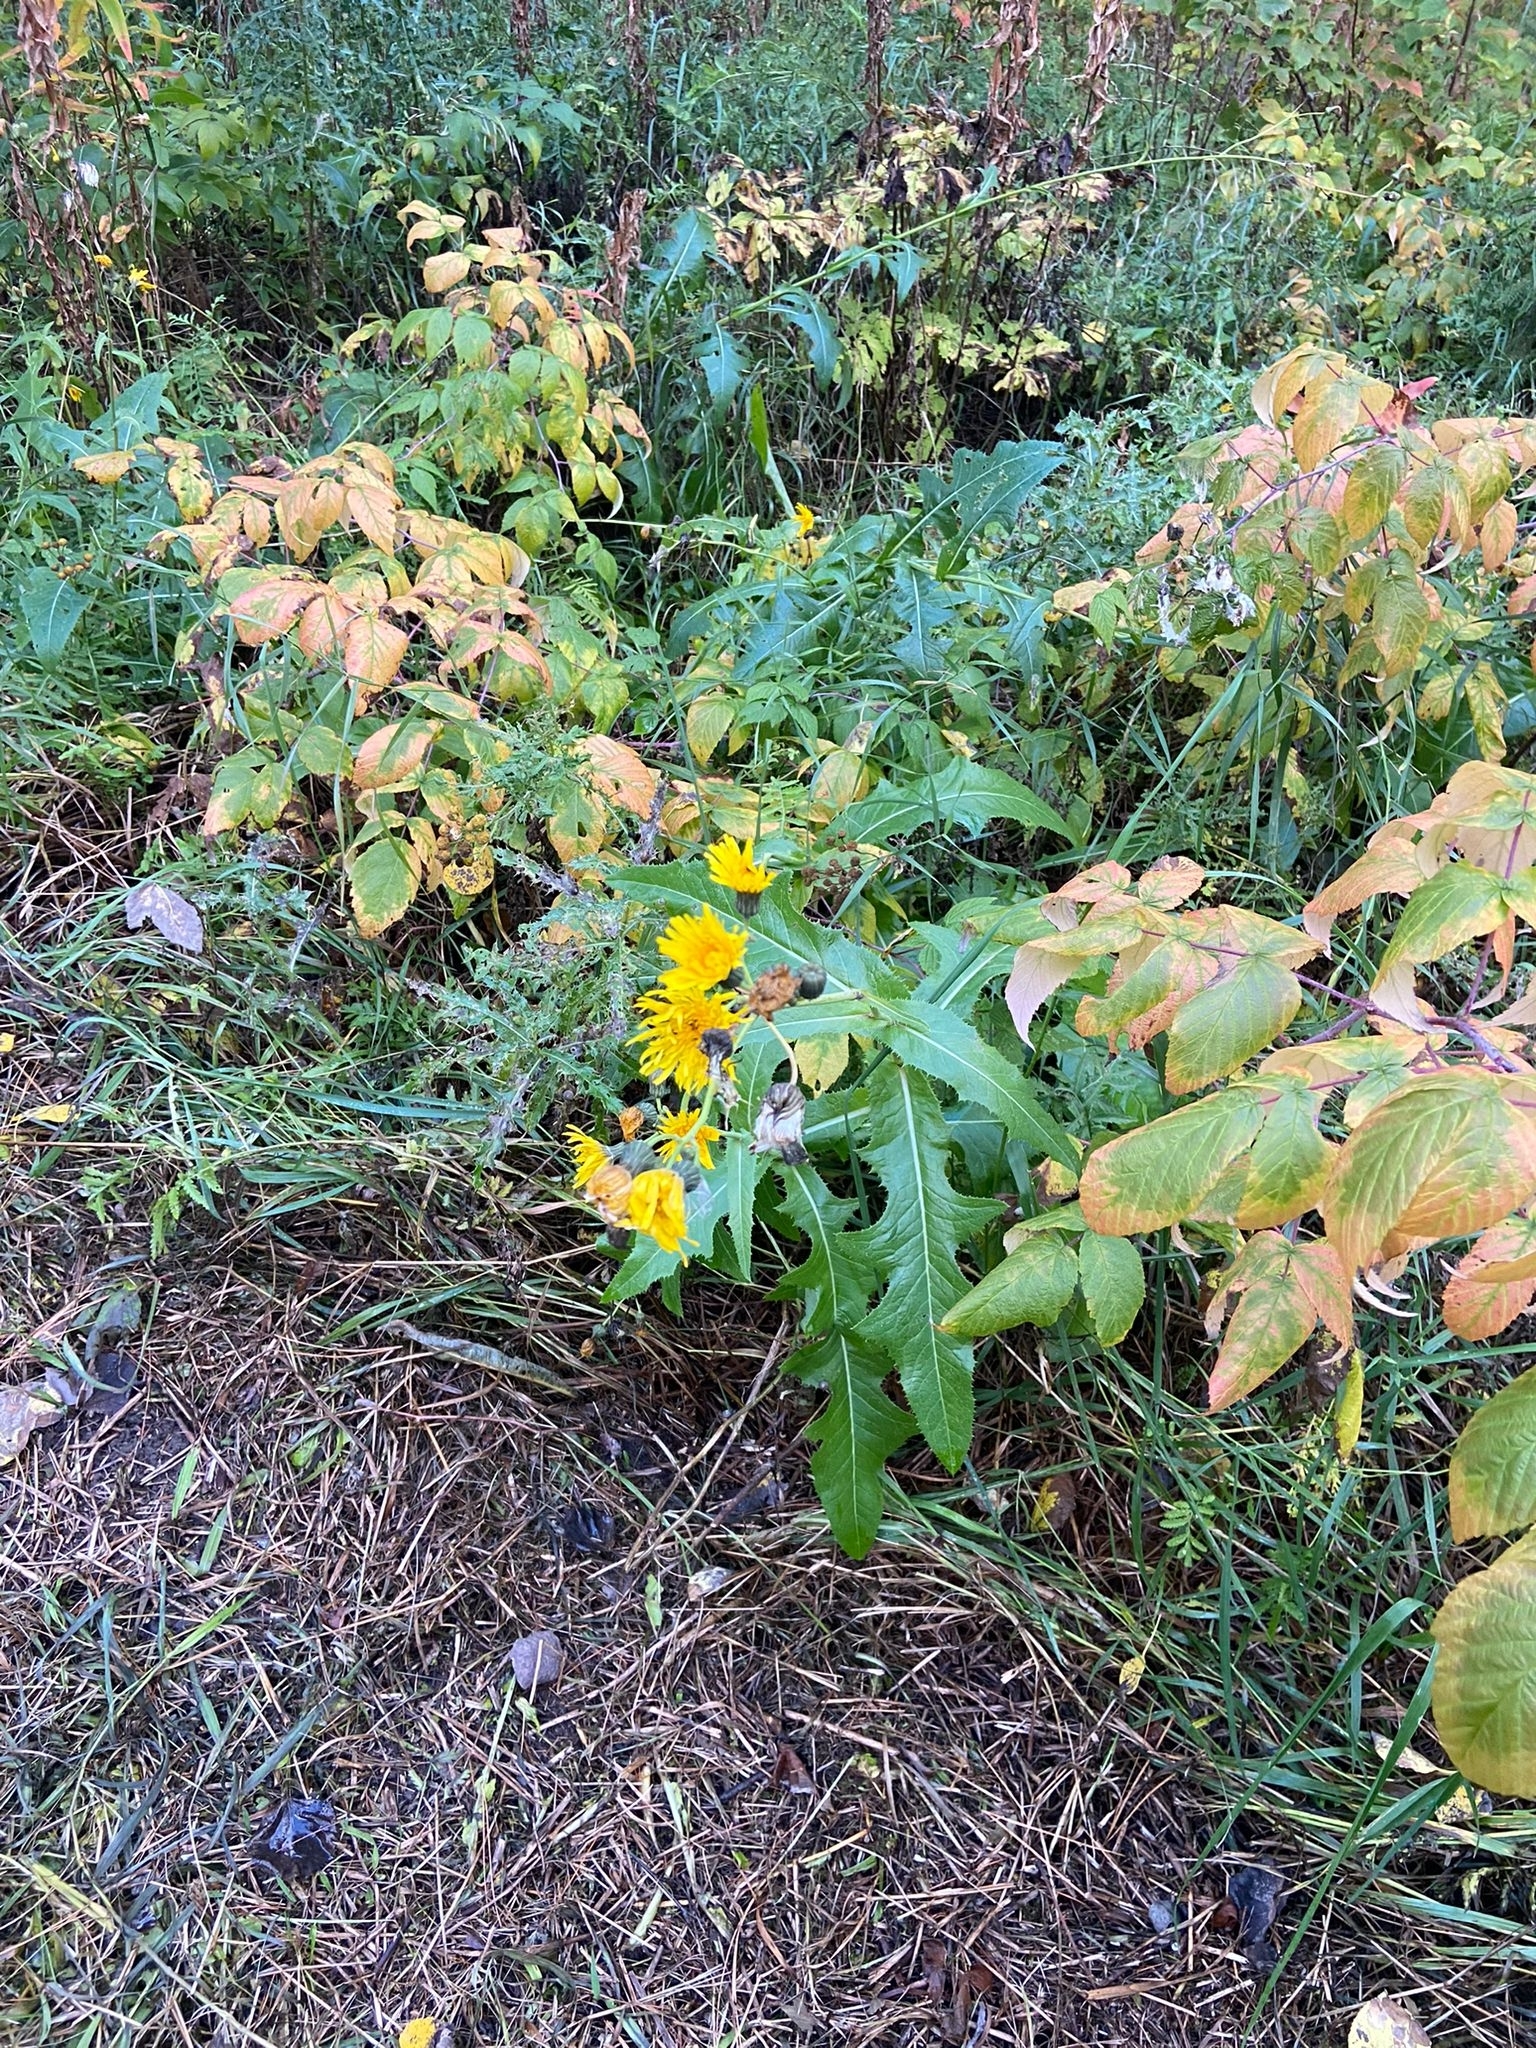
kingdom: Plantae
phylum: Tracheophyta
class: Magnoliopsida
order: Asterales
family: Asteraceae
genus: Sonchus
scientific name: Sonchus arvensis
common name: Perennial sow-thistle
